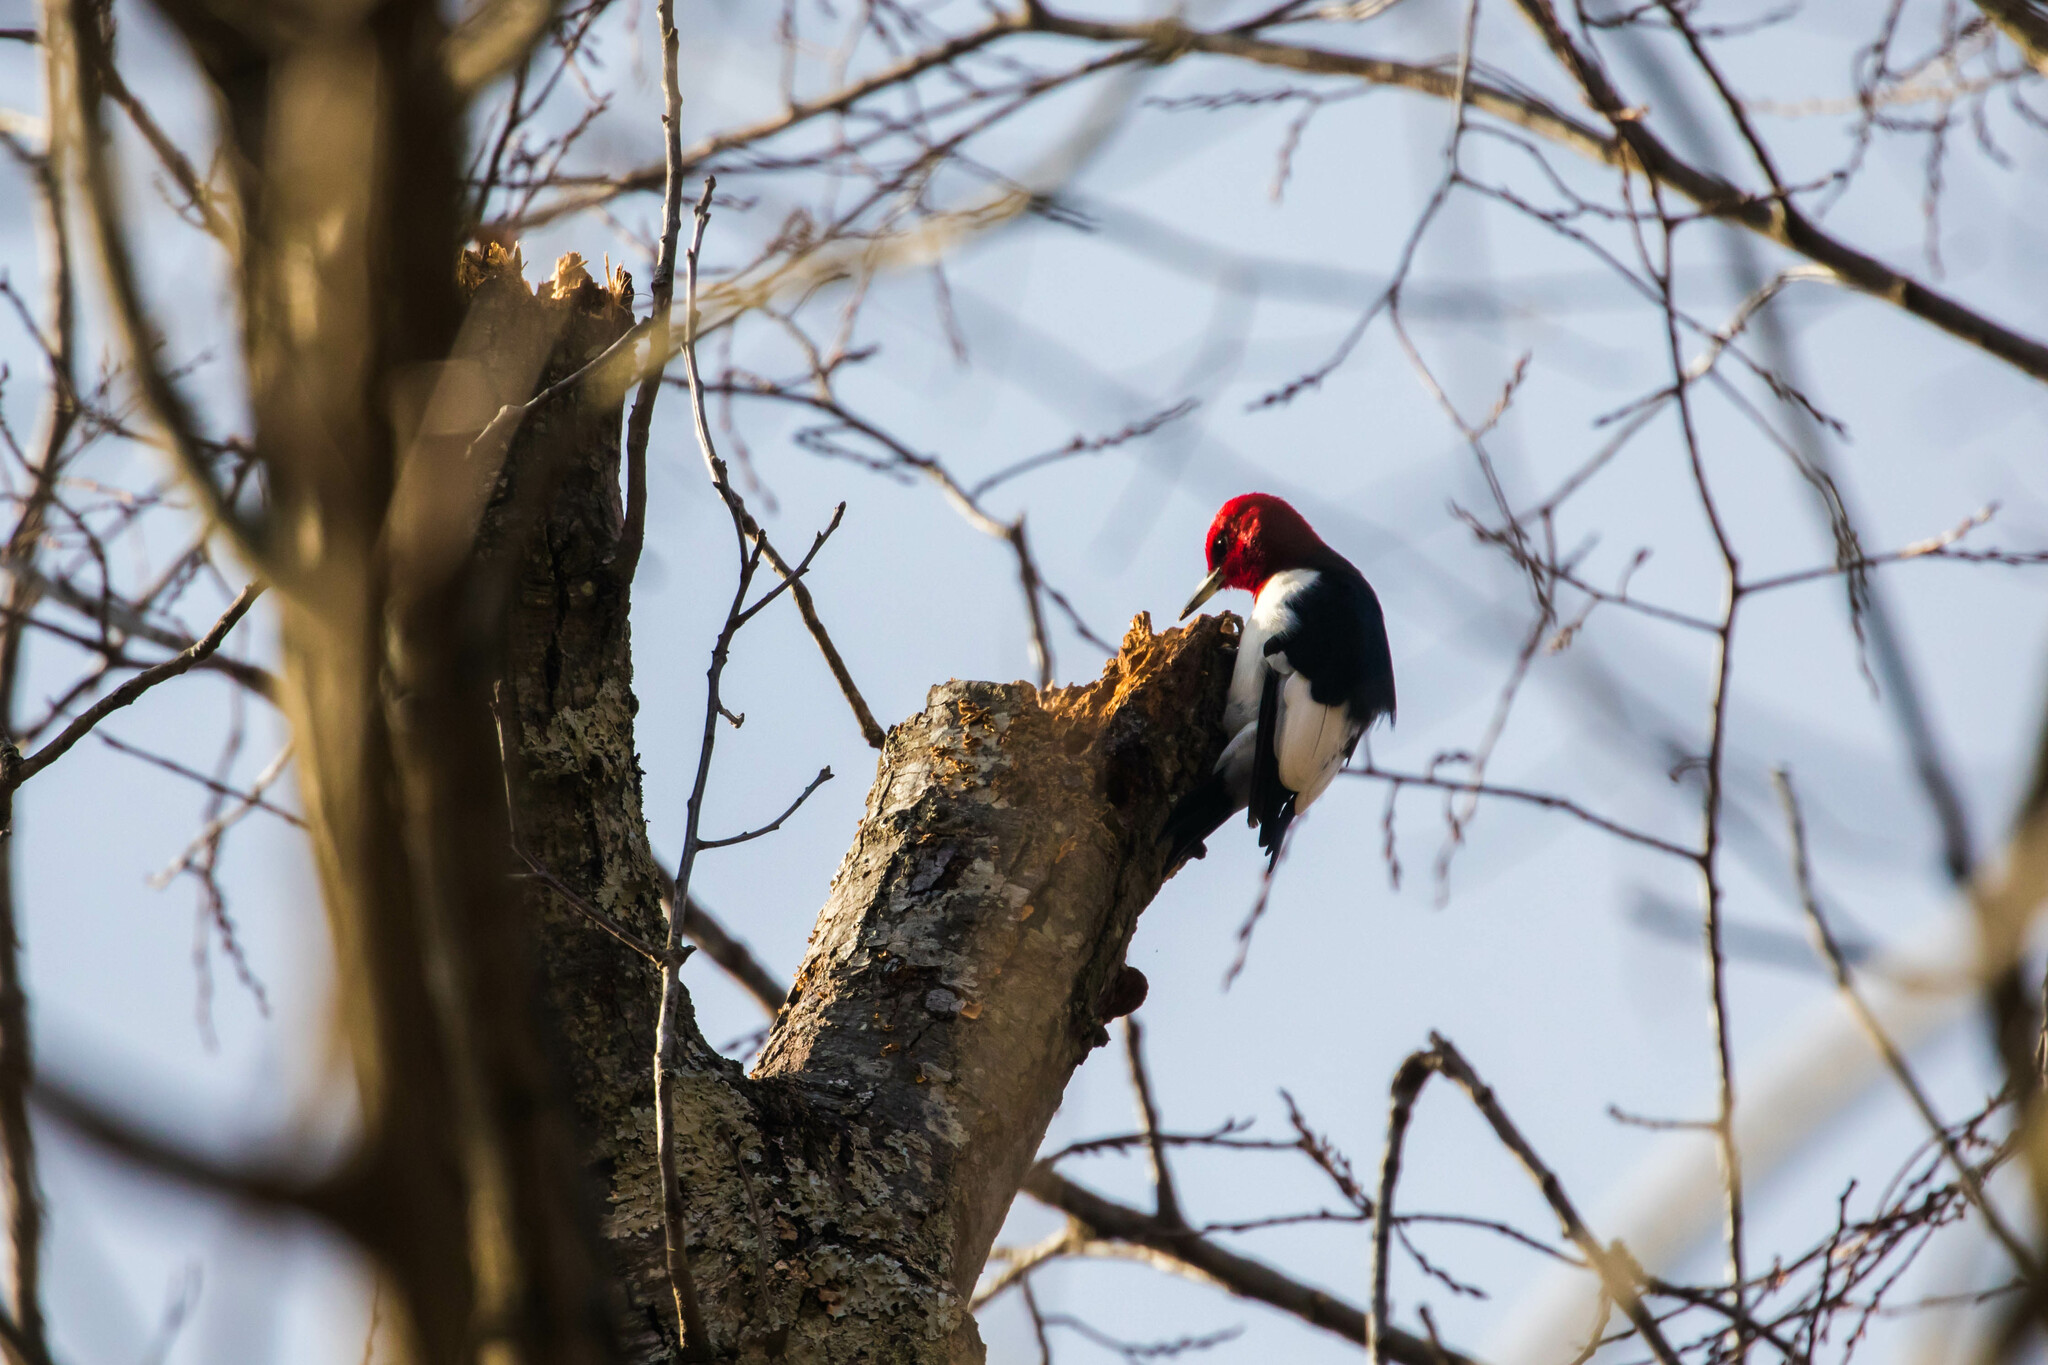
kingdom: Animalia
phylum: Chordata
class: Aves
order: Piciformes
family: Picidae
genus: Melanerpes
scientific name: Melanerpes erythrocephalus
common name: Red-headed woodpecker
